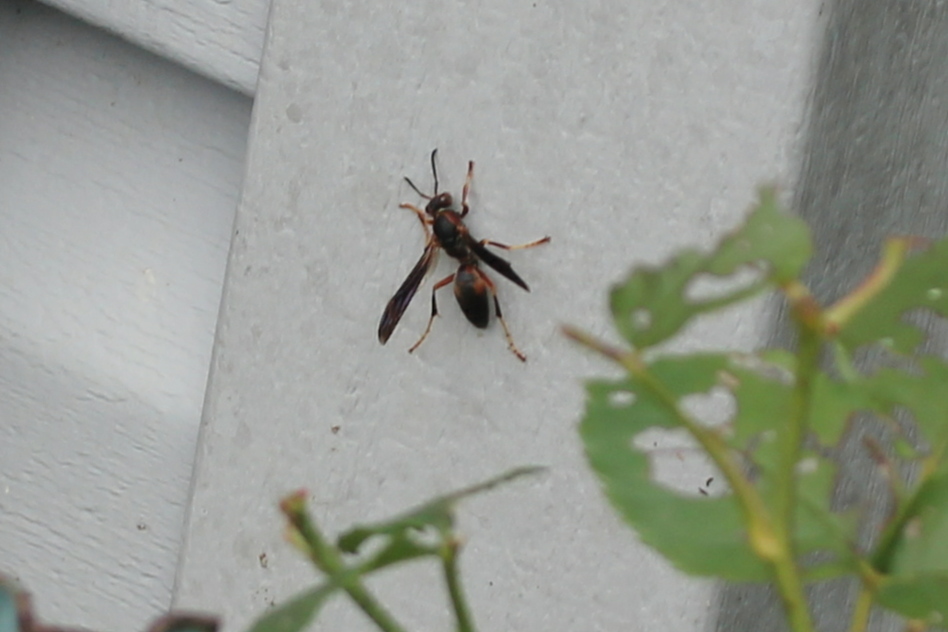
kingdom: Animalia
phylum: Arthropoda
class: Insecta
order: Hymenoptera
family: Eumenidae
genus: Polistes
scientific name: Polistes fuscatus
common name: Dark paper wasp
